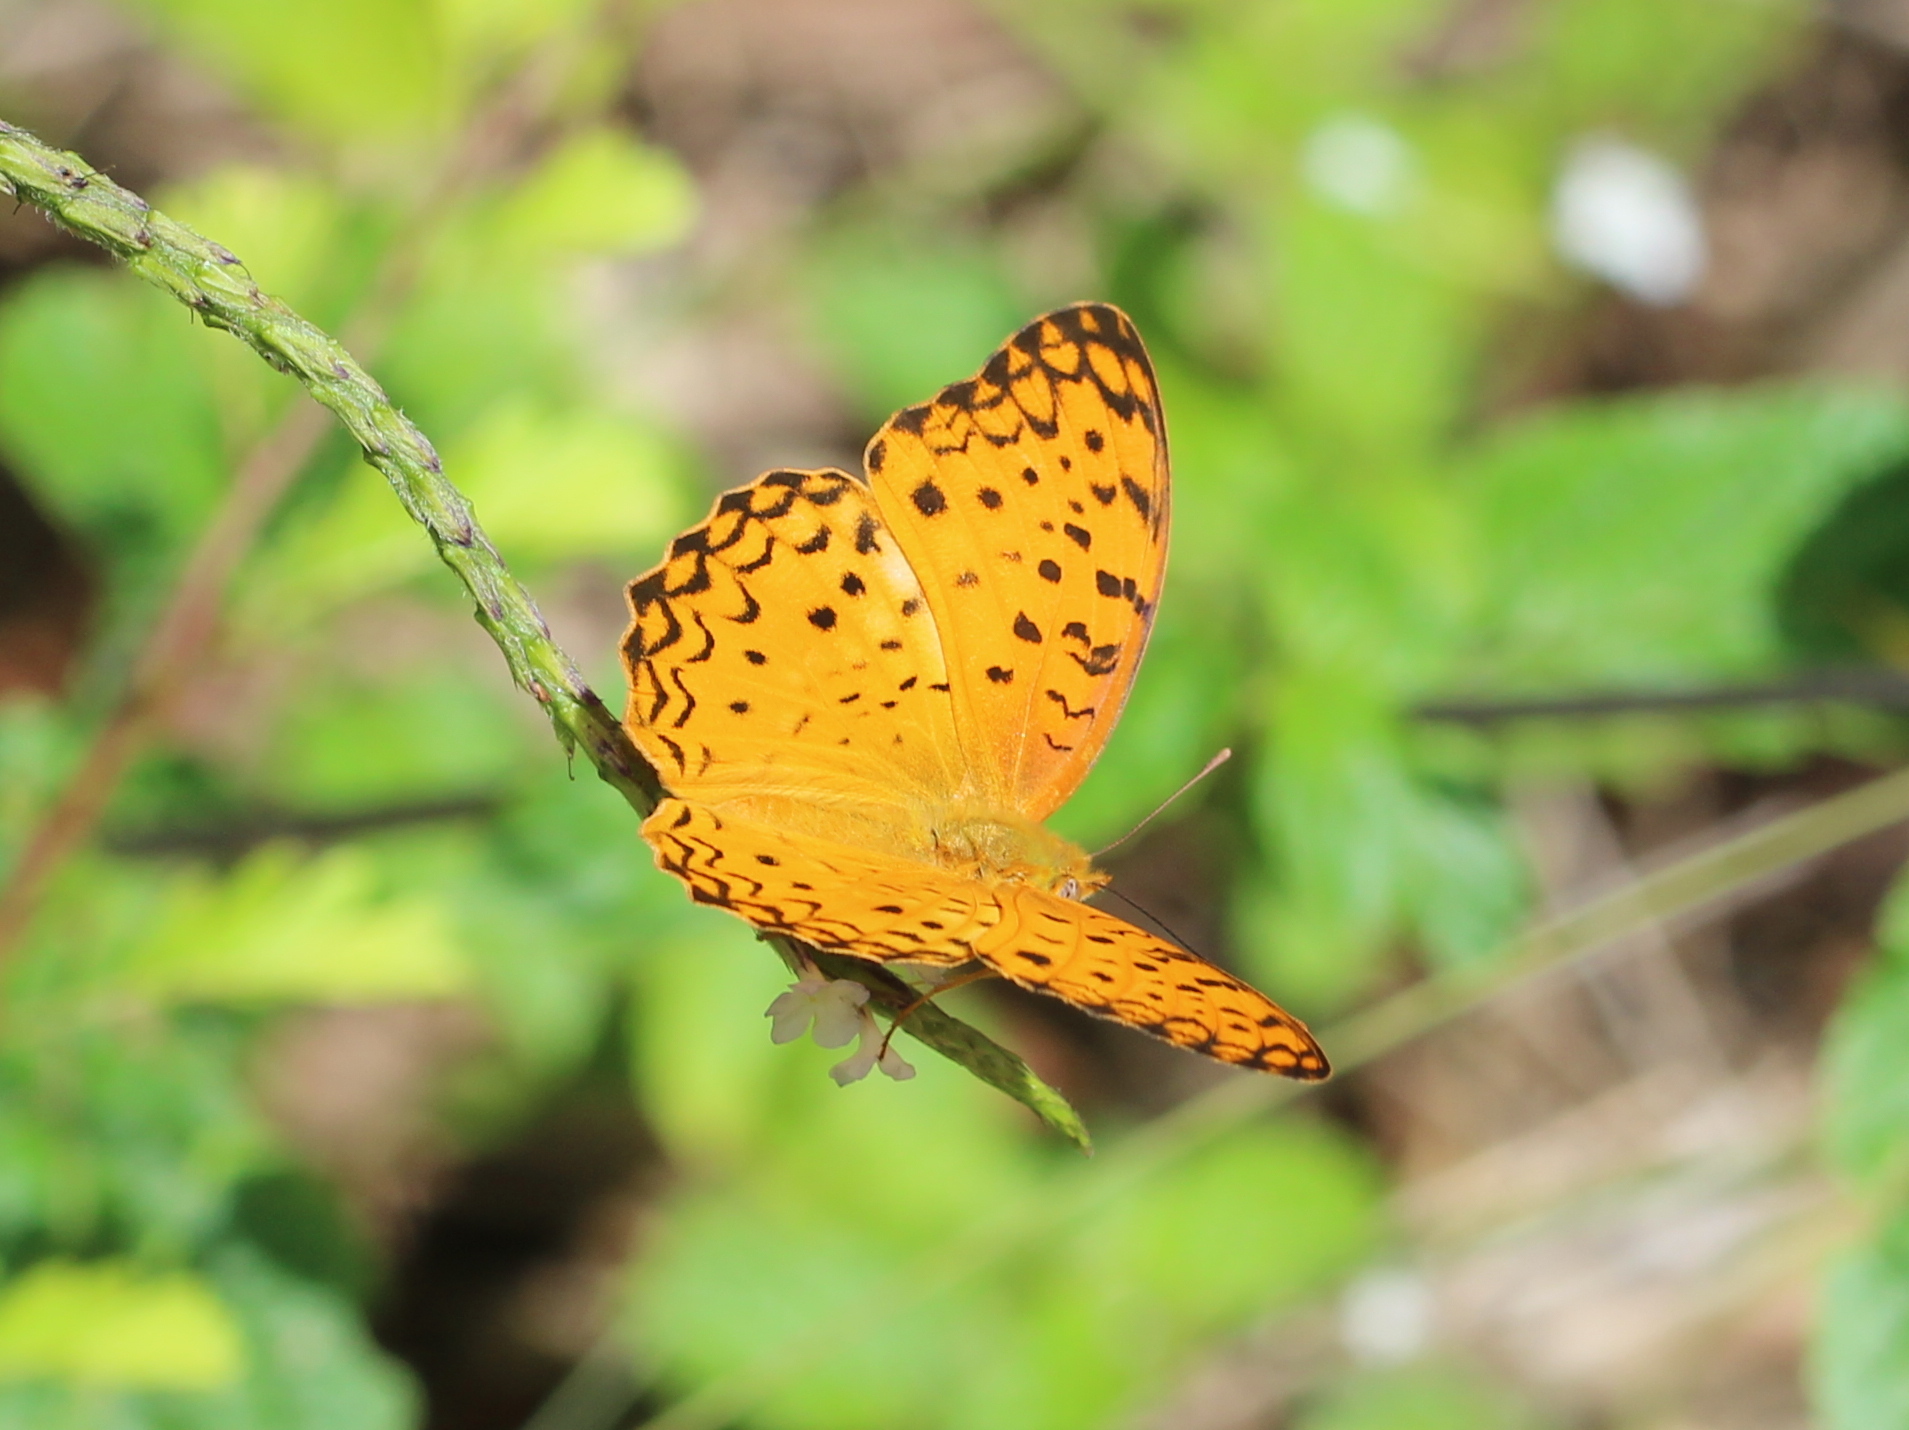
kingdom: Animalia
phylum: Arthropoda
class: Insecta
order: Lepidoptera
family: Nymphalidae
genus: Phalanta
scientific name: Phalanta phalantha
